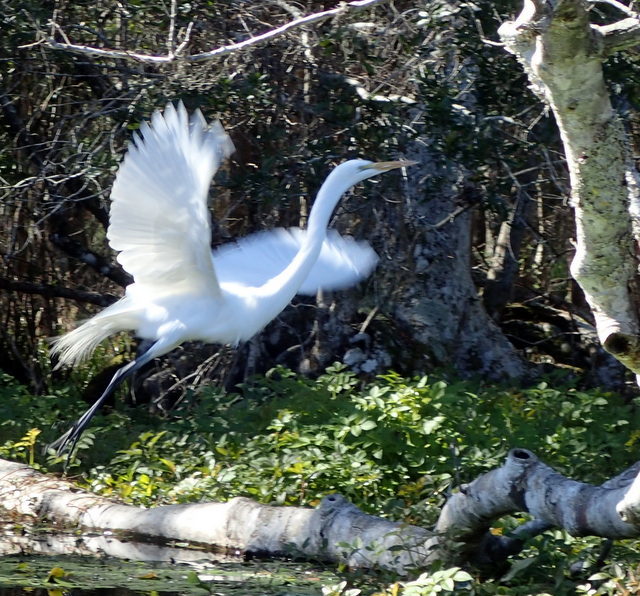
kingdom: Animalia
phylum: Chordata
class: Aves
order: Pelecaniformes
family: Ardeidae
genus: Ardea
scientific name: Ardea alba
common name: Great egret
